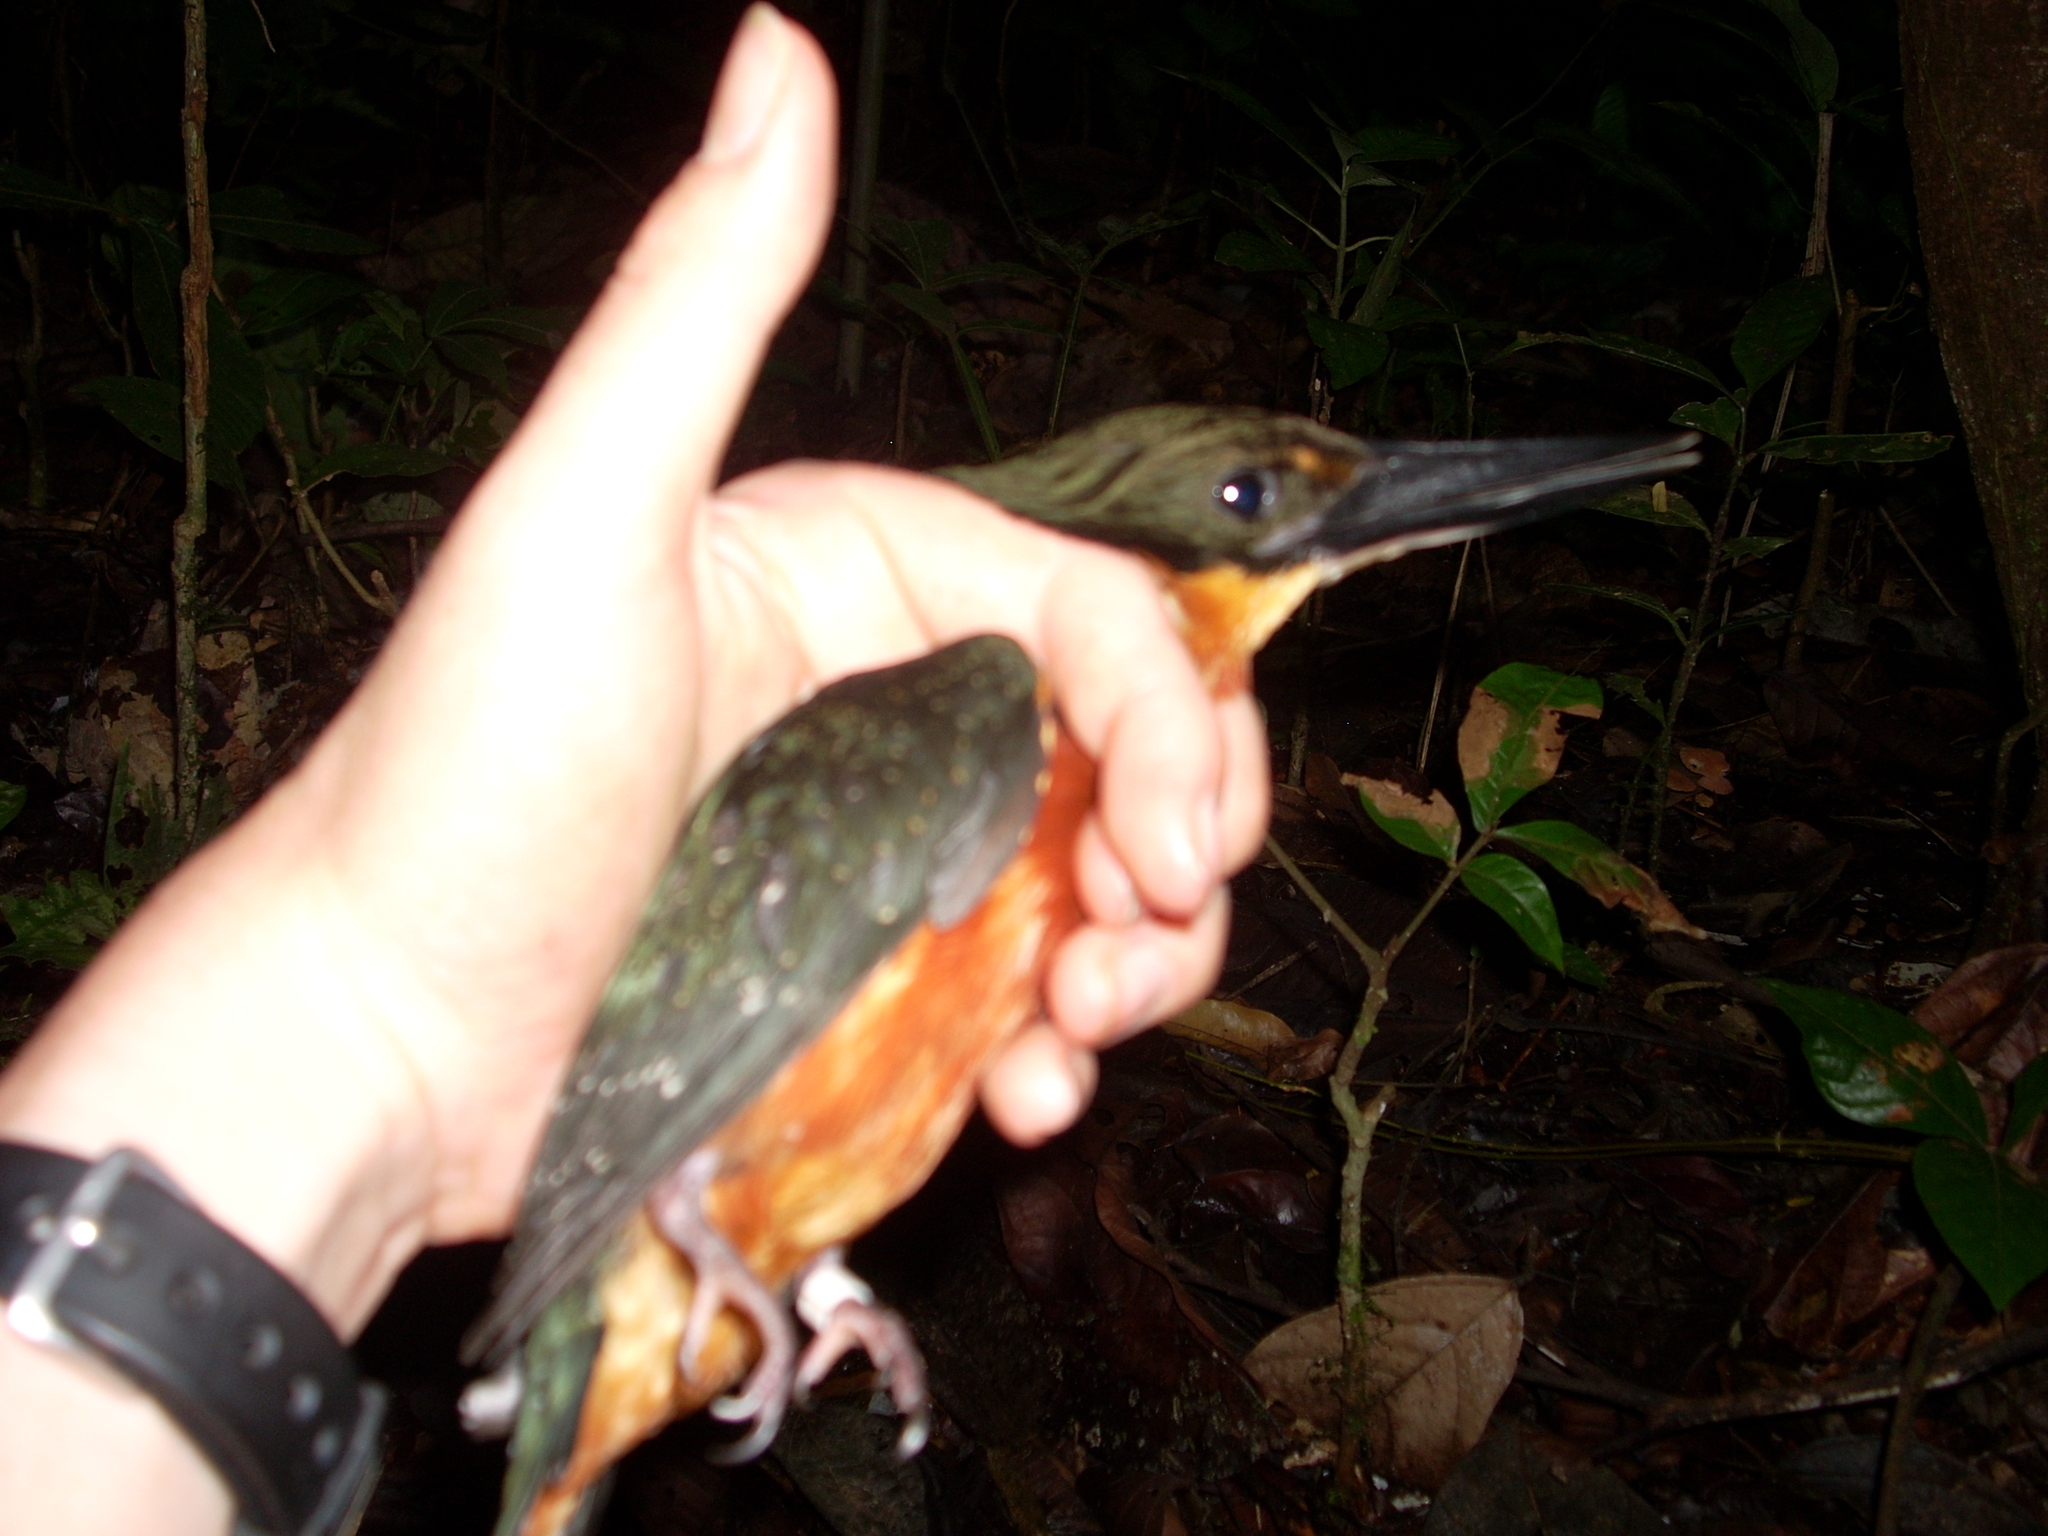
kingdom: Animalia
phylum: Chordata
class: Aves
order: Coraciiformes
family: Alcedinidae
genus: Chloroceryle
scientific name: Chloroceryle inda
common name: Green-and-rufous kingfisher
